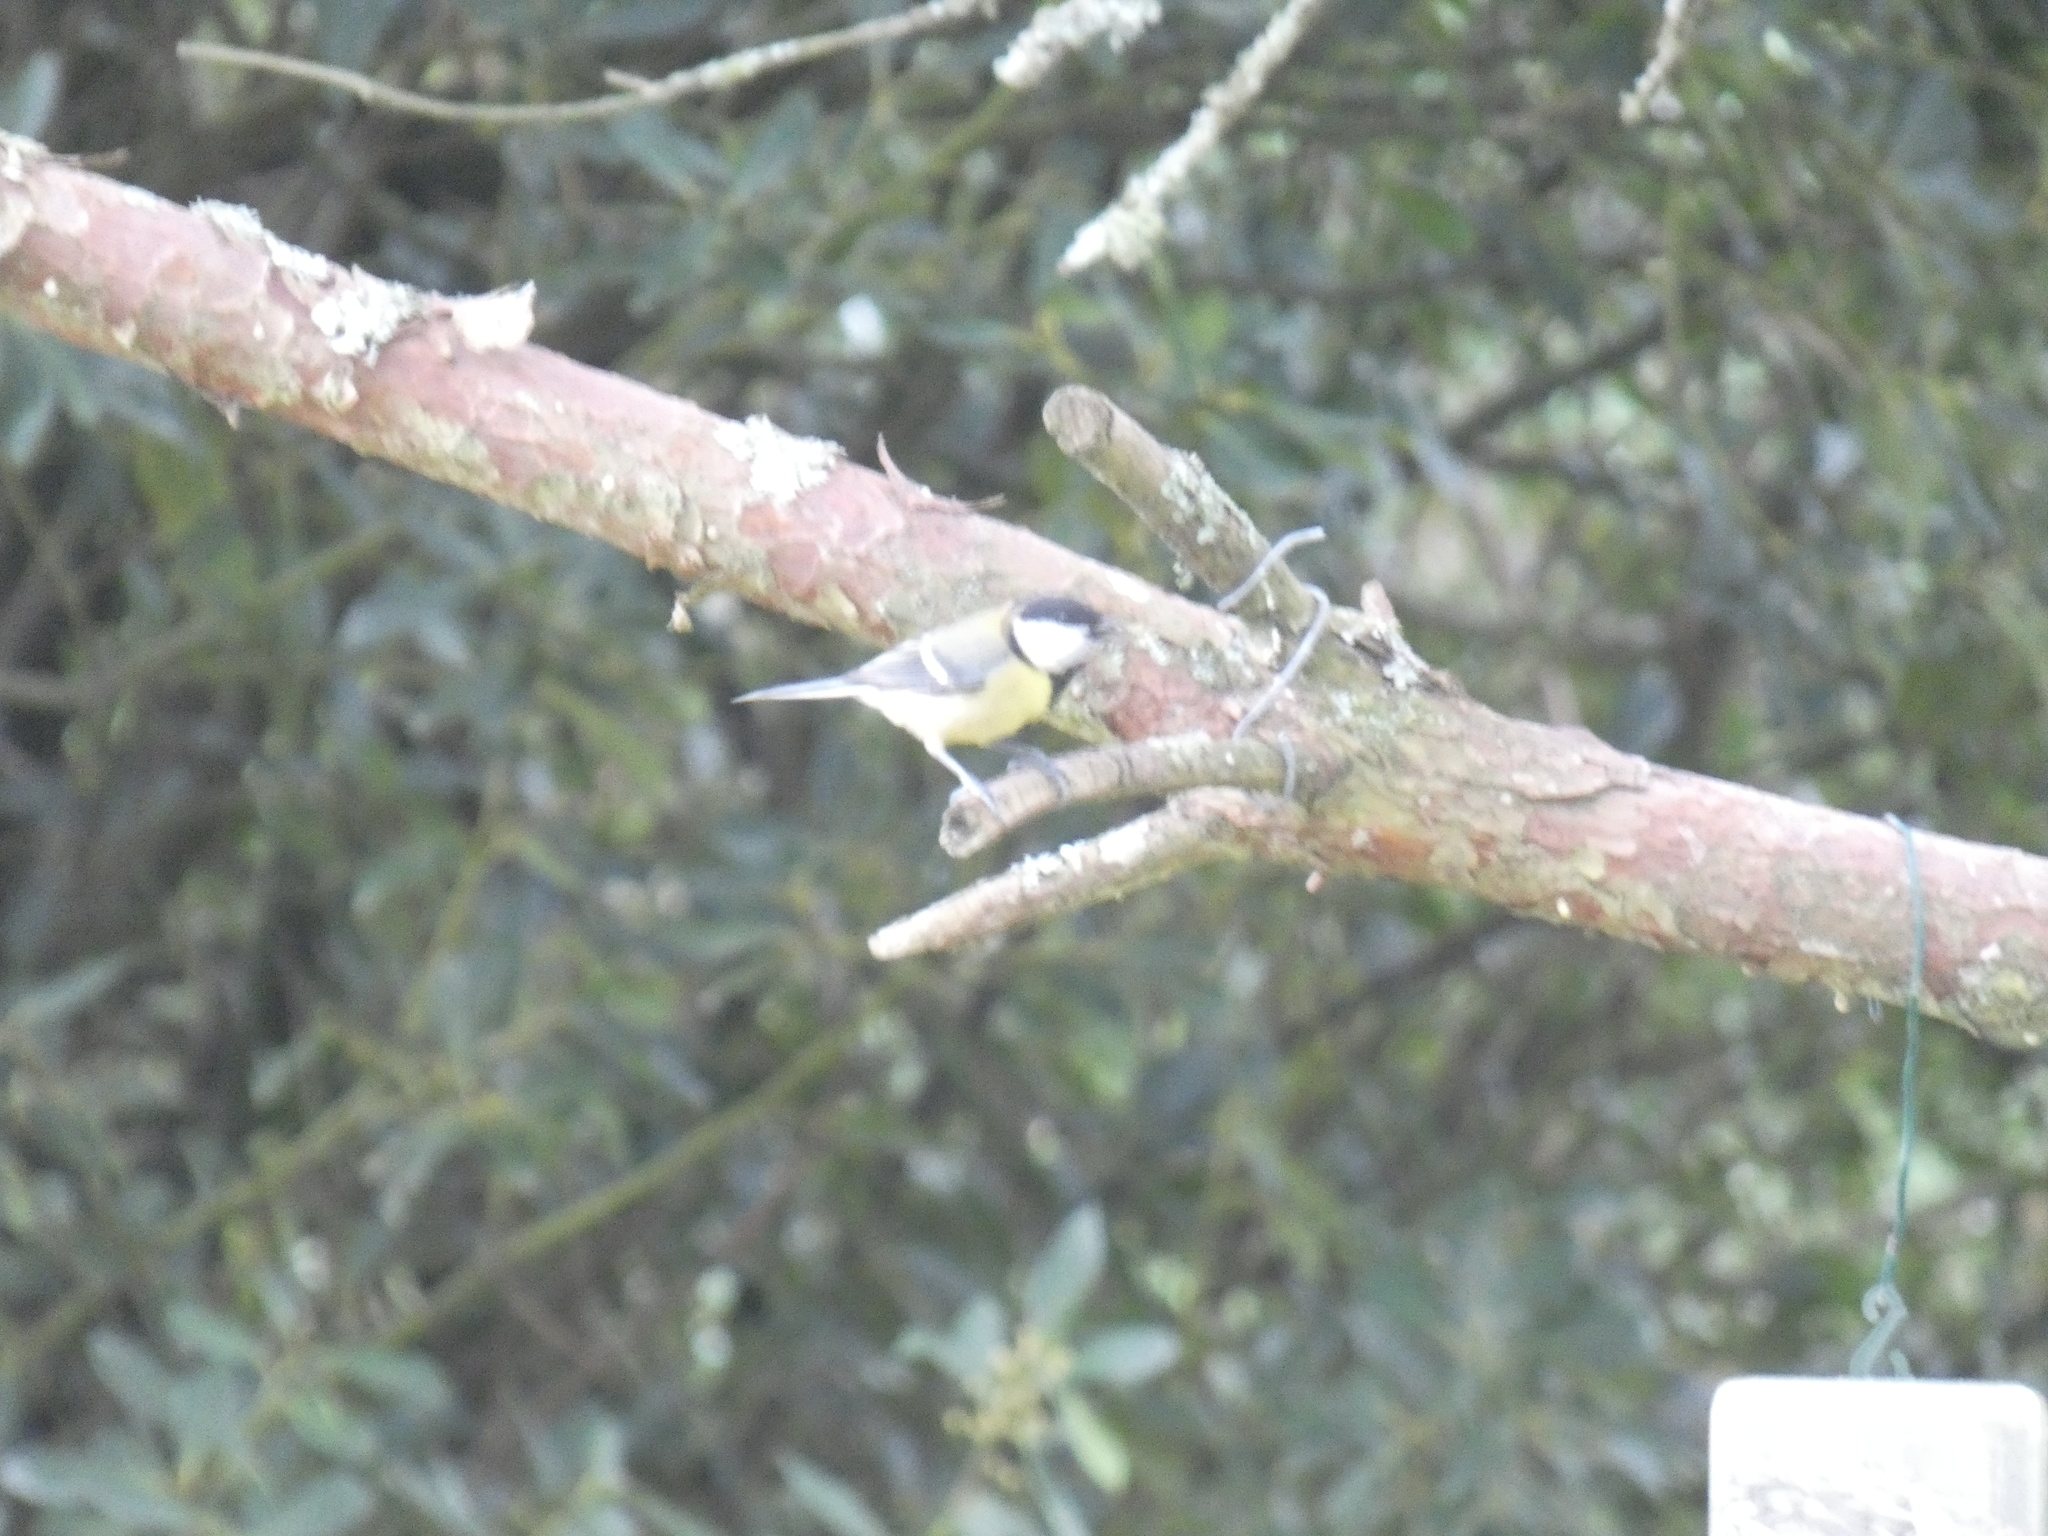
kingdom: Animalia
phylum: Chordata
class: Aves
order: Passeriformes
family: Paridae
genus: Parus
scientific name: Parus major
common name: Great tit
